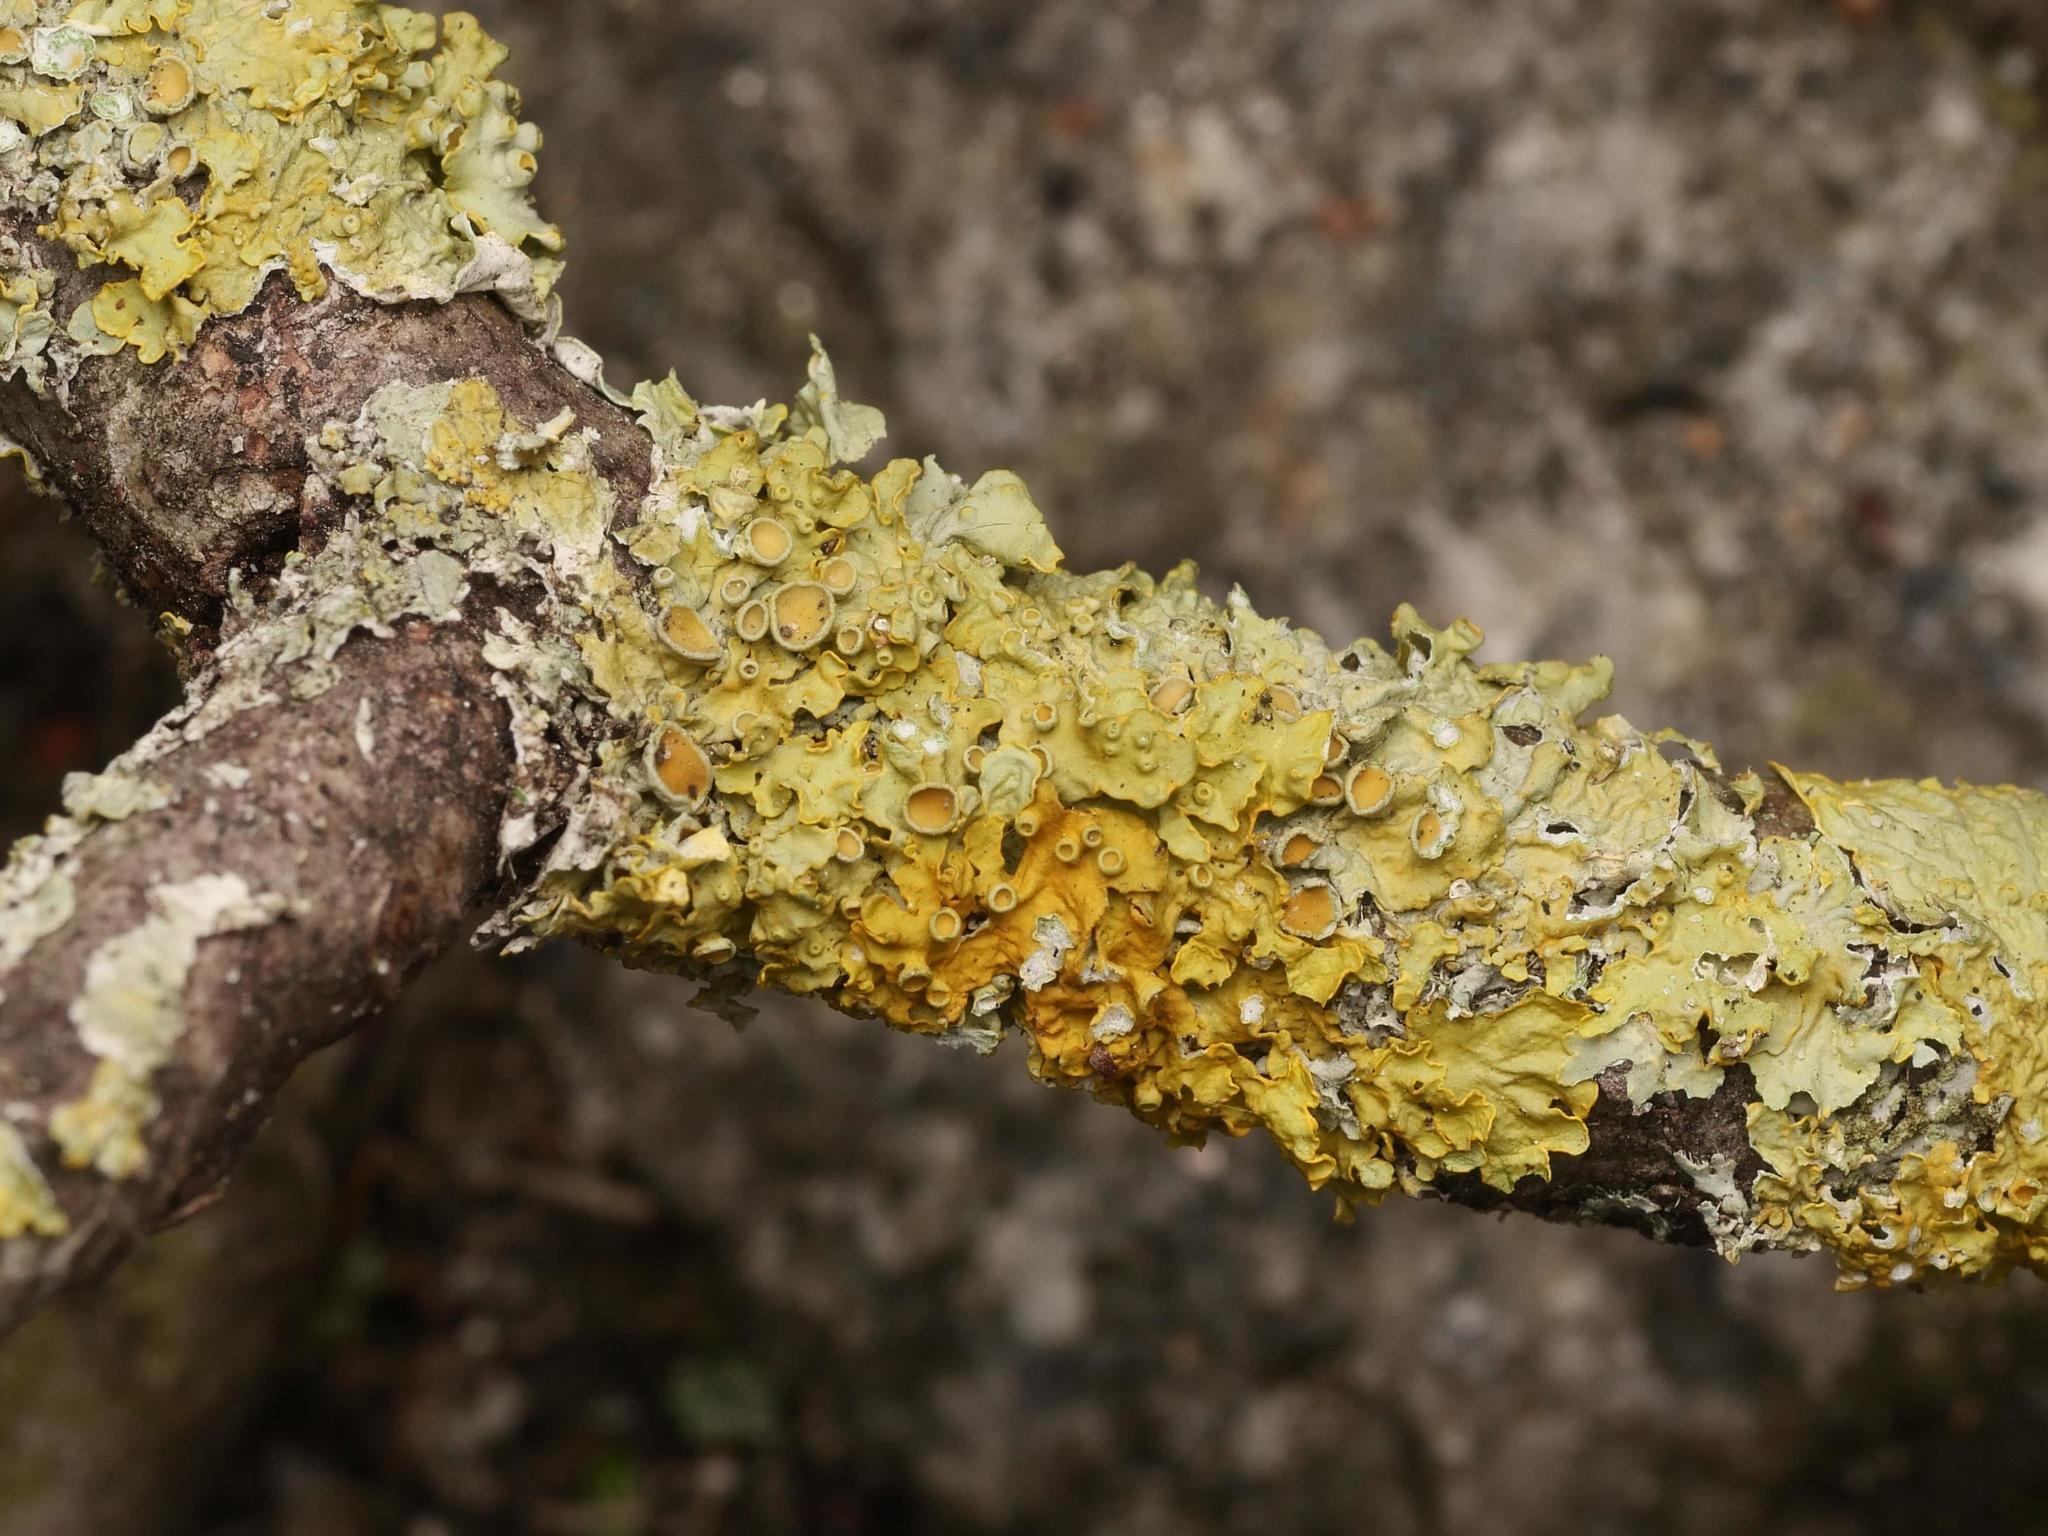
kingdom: Fungi
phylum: Ascomycota
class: Lecanoromycetes
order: Teloschistales
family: Teloschistaceae
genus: Xanthoria
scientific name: Xanthoria parietina
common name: Common orange lichen
